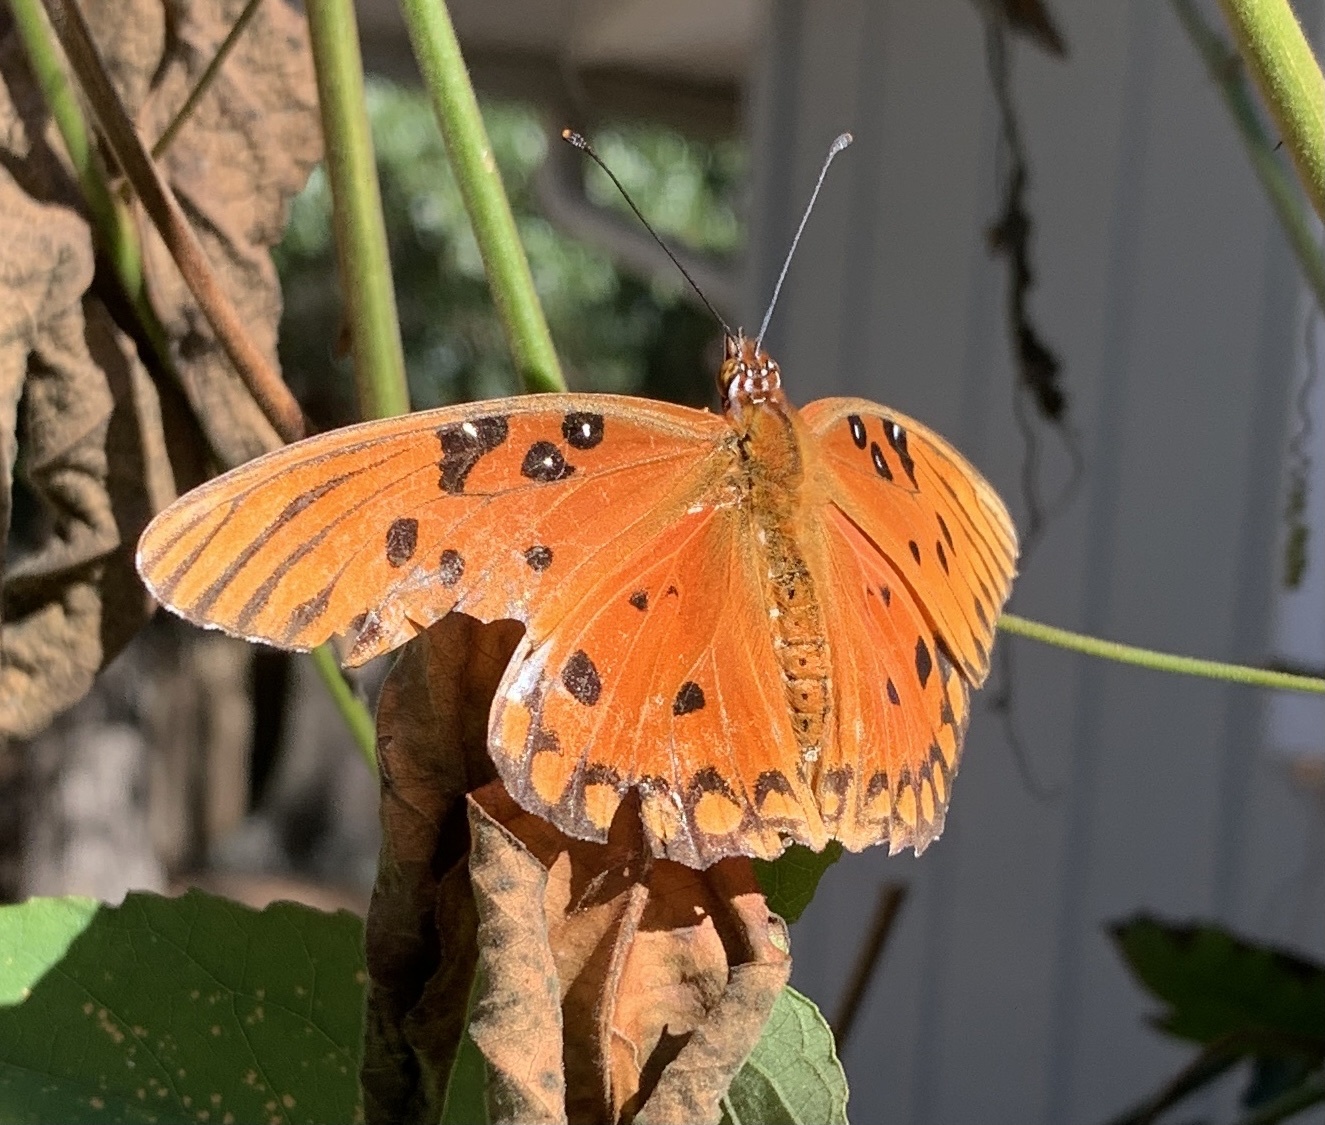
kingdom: Animalia
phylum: Arthropoda
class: Insecta
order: Lepidoptera
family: Nymphalidae
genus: Dione
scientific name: Dione vanillae
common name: Gulf fritillary
